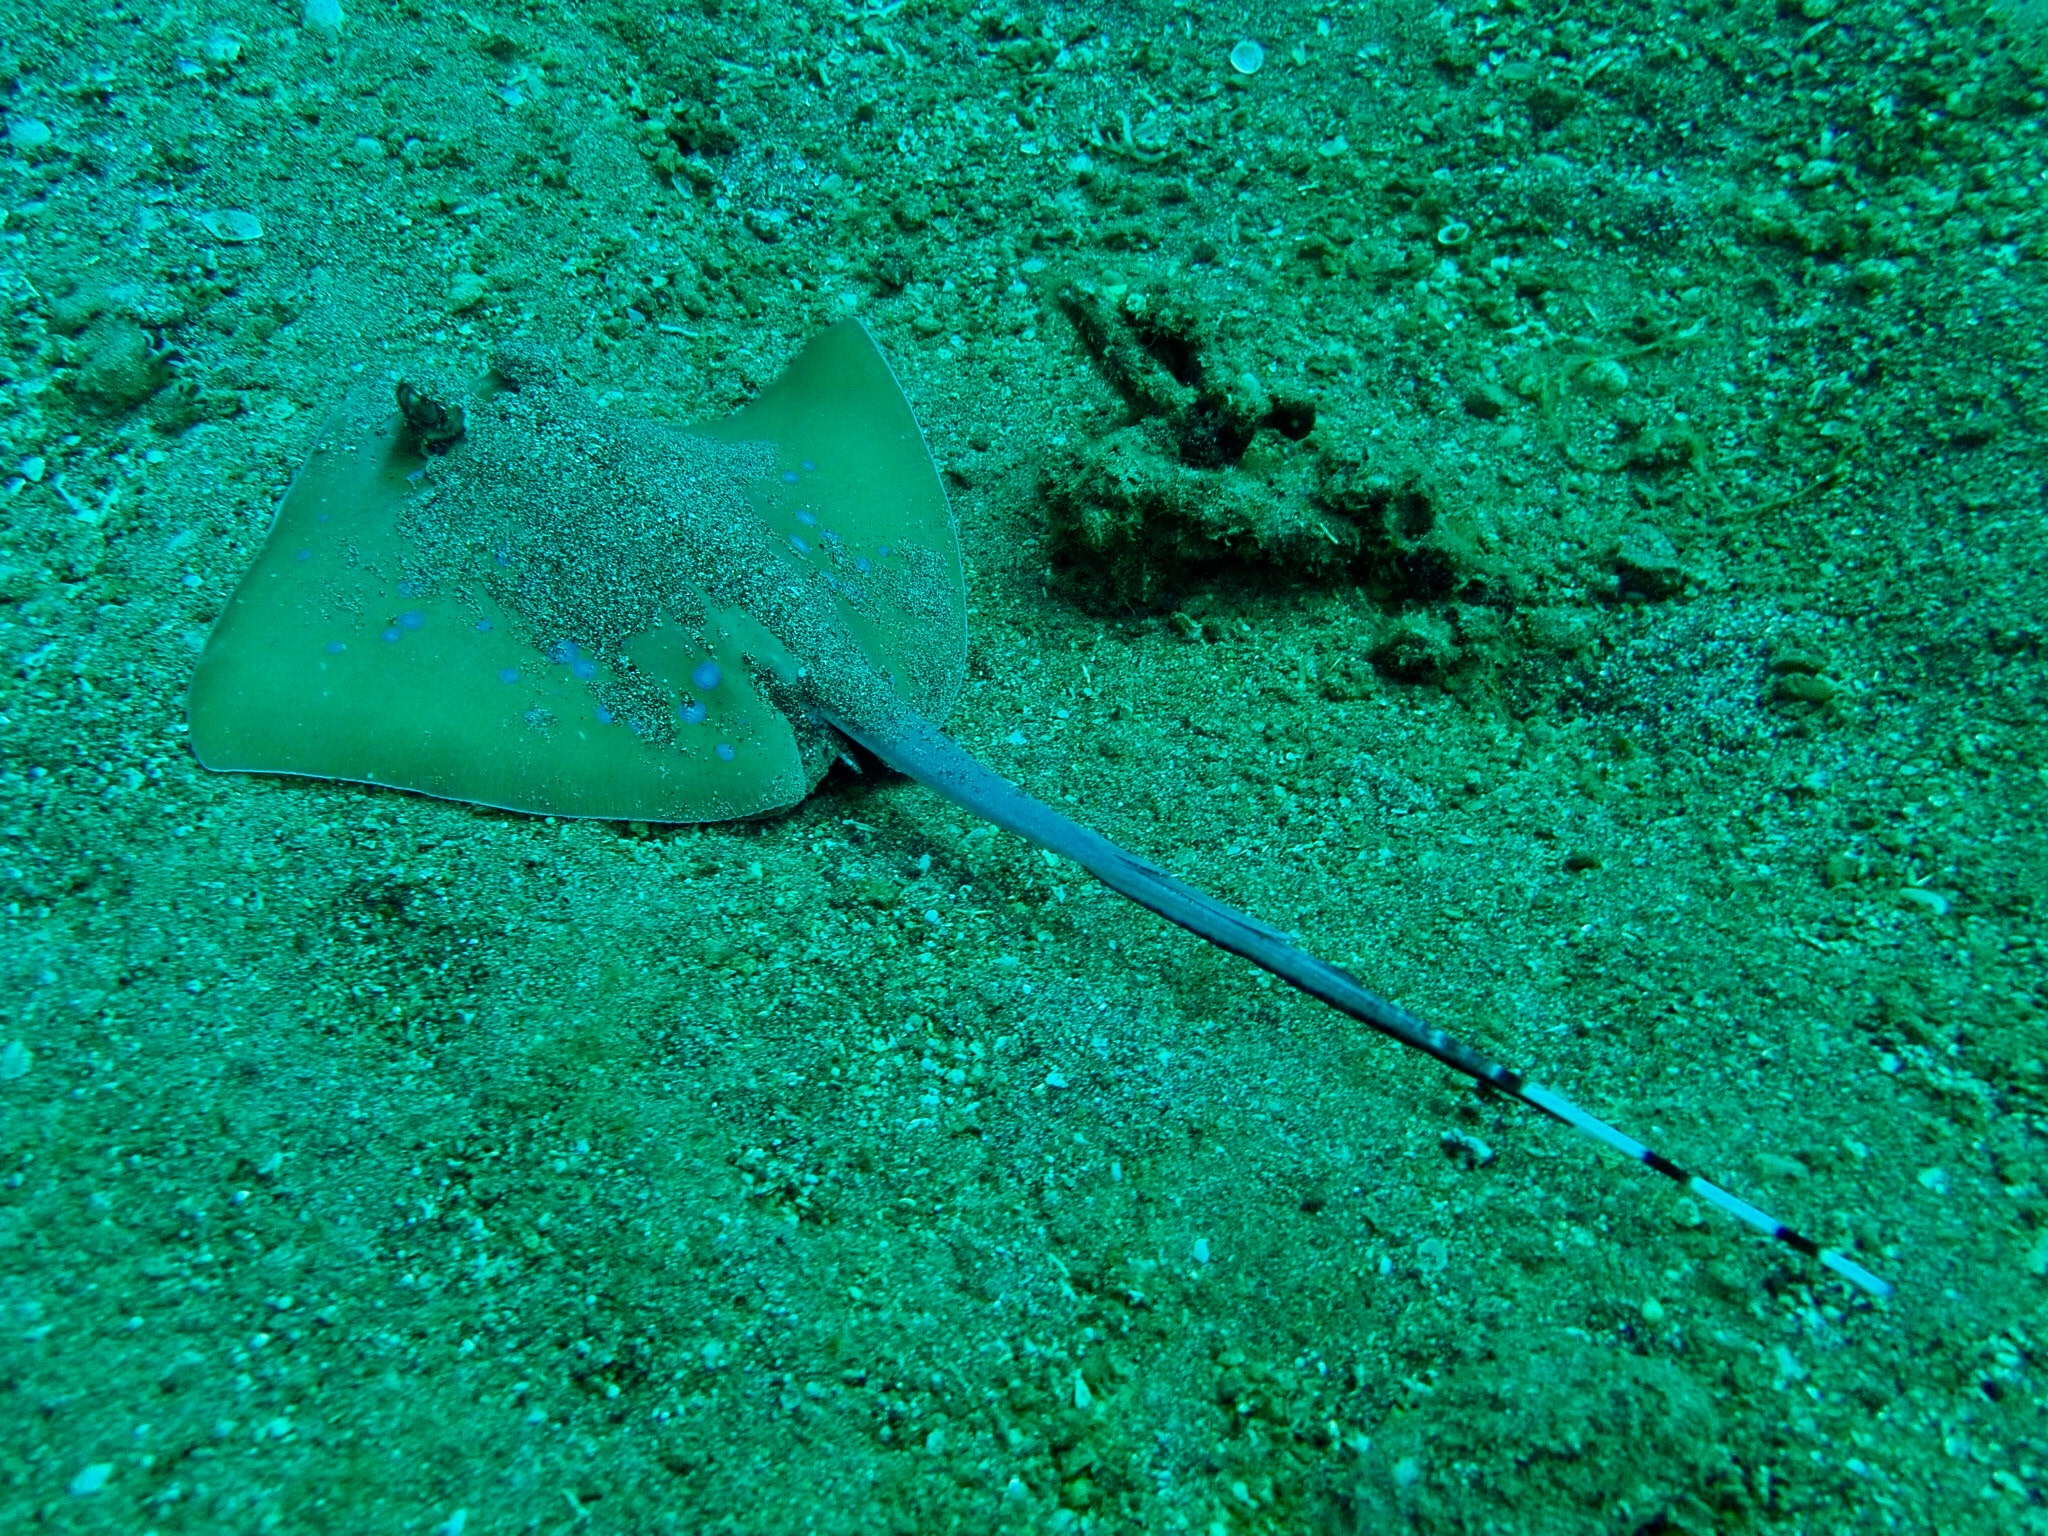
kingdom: Animalia
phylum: Chordata
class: Elasmobranchii
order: Myliobatiformes
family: Dasyatidae
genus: Neotrygon
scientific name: Neotrygon orientale
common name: Oriental bluespotted maskray
